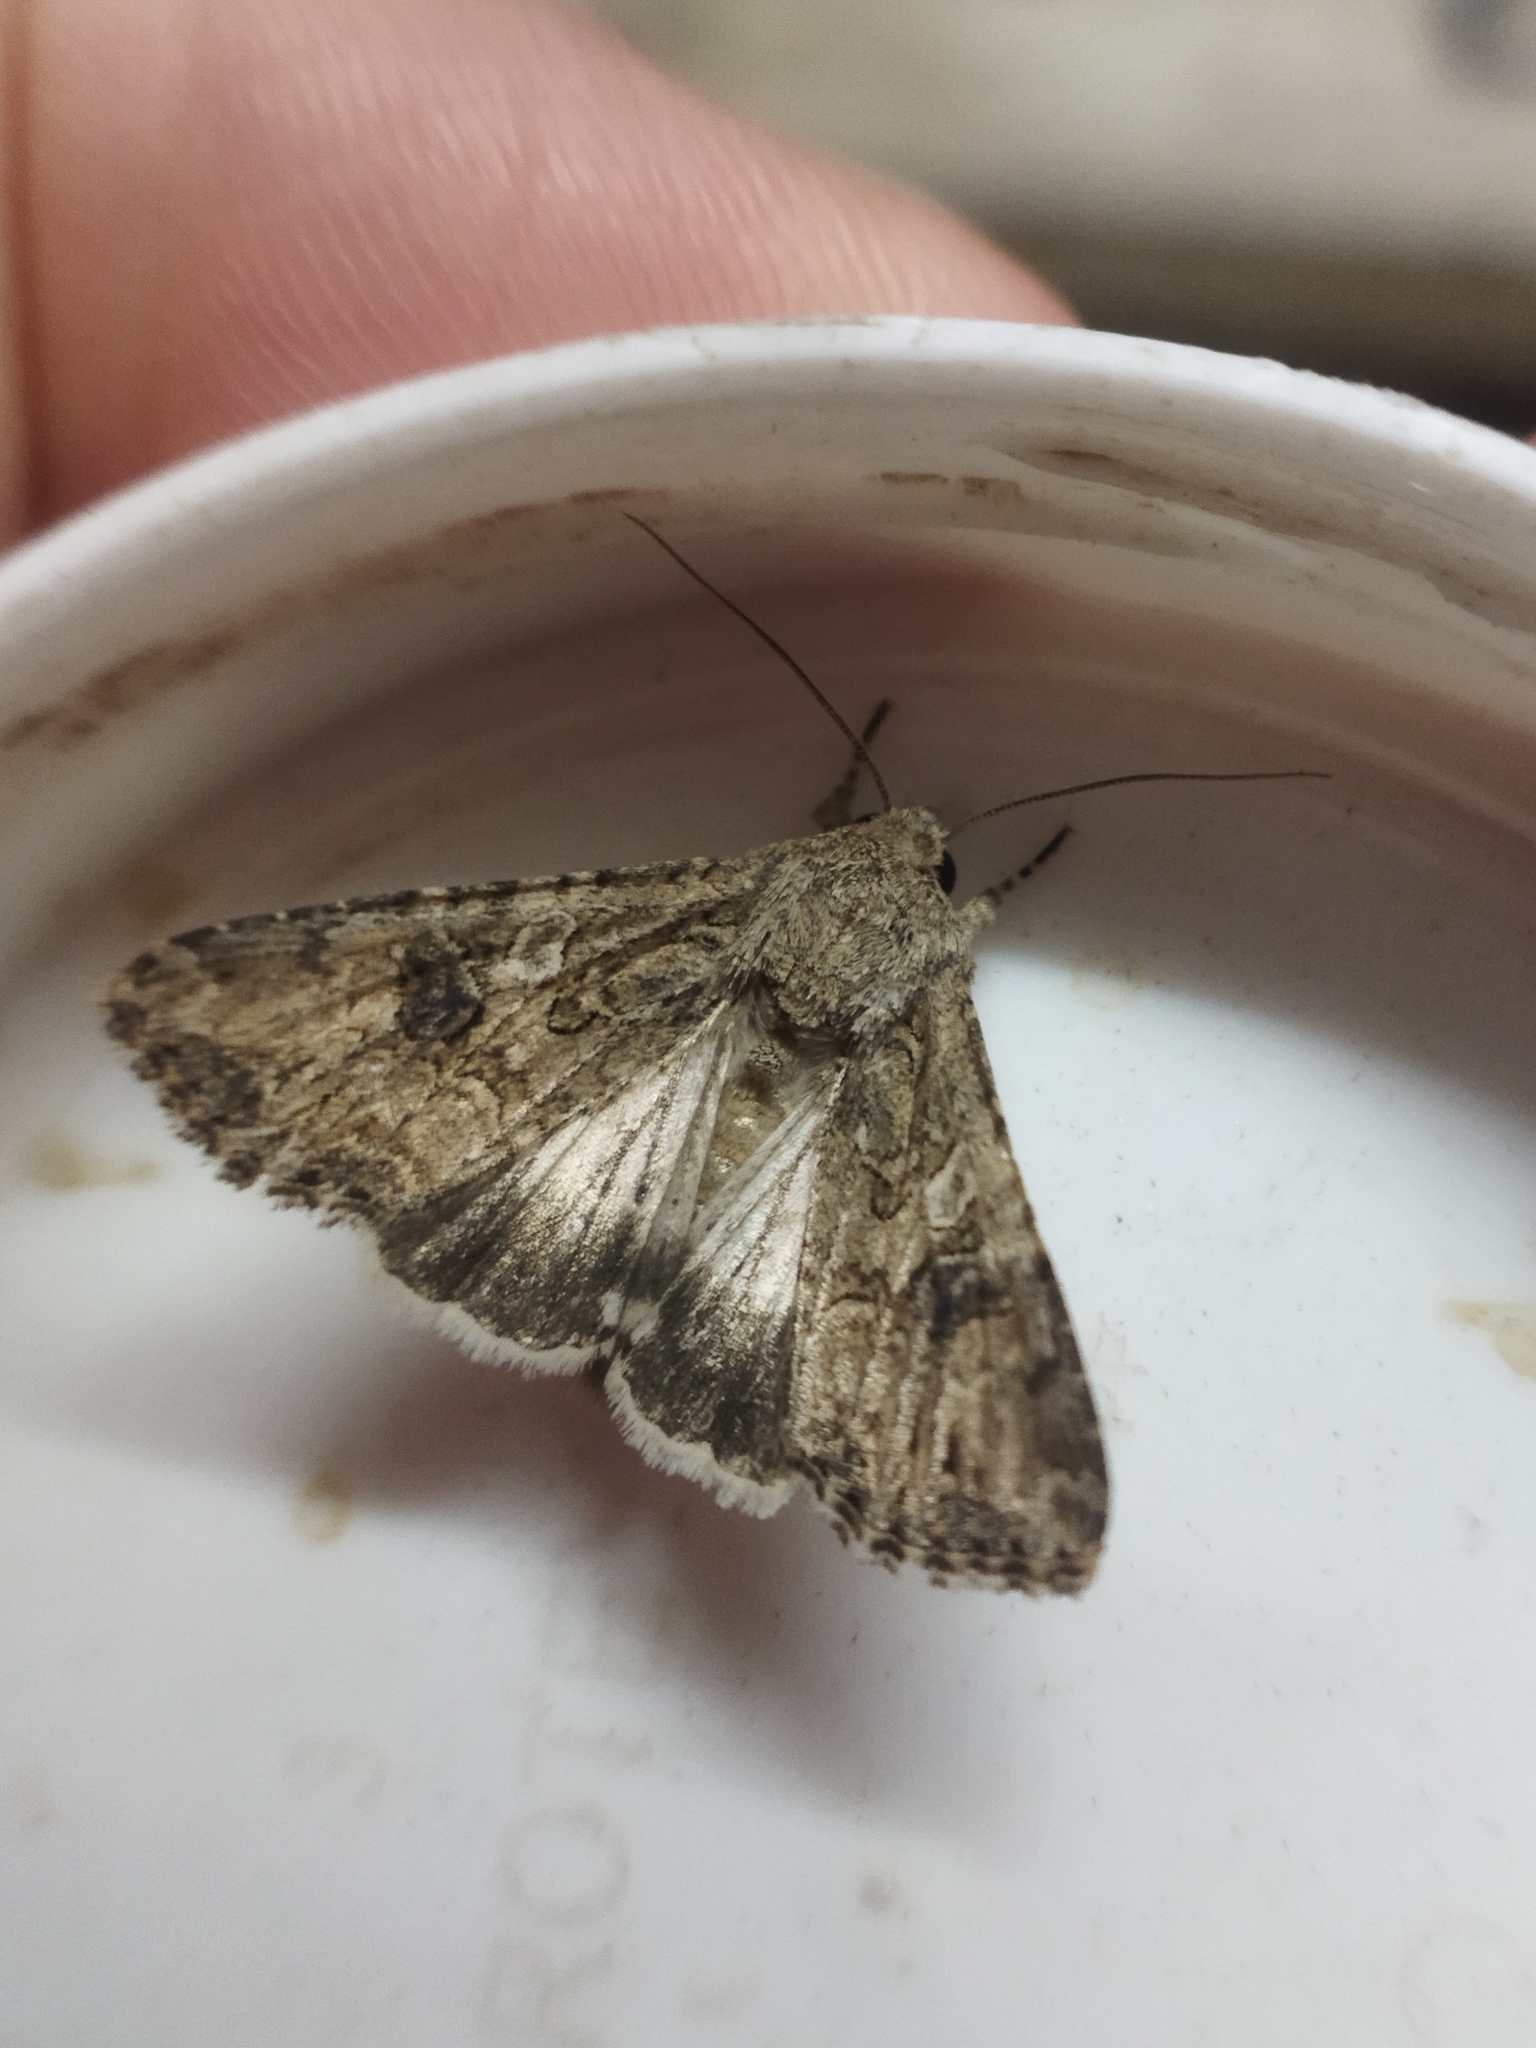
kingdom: Animalia
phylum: Arthropoda
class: Insecta
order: Lepidoptera
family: Noctuidae
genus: Anarta
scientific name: Anarta trifolii
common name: Clover cutworm moth
